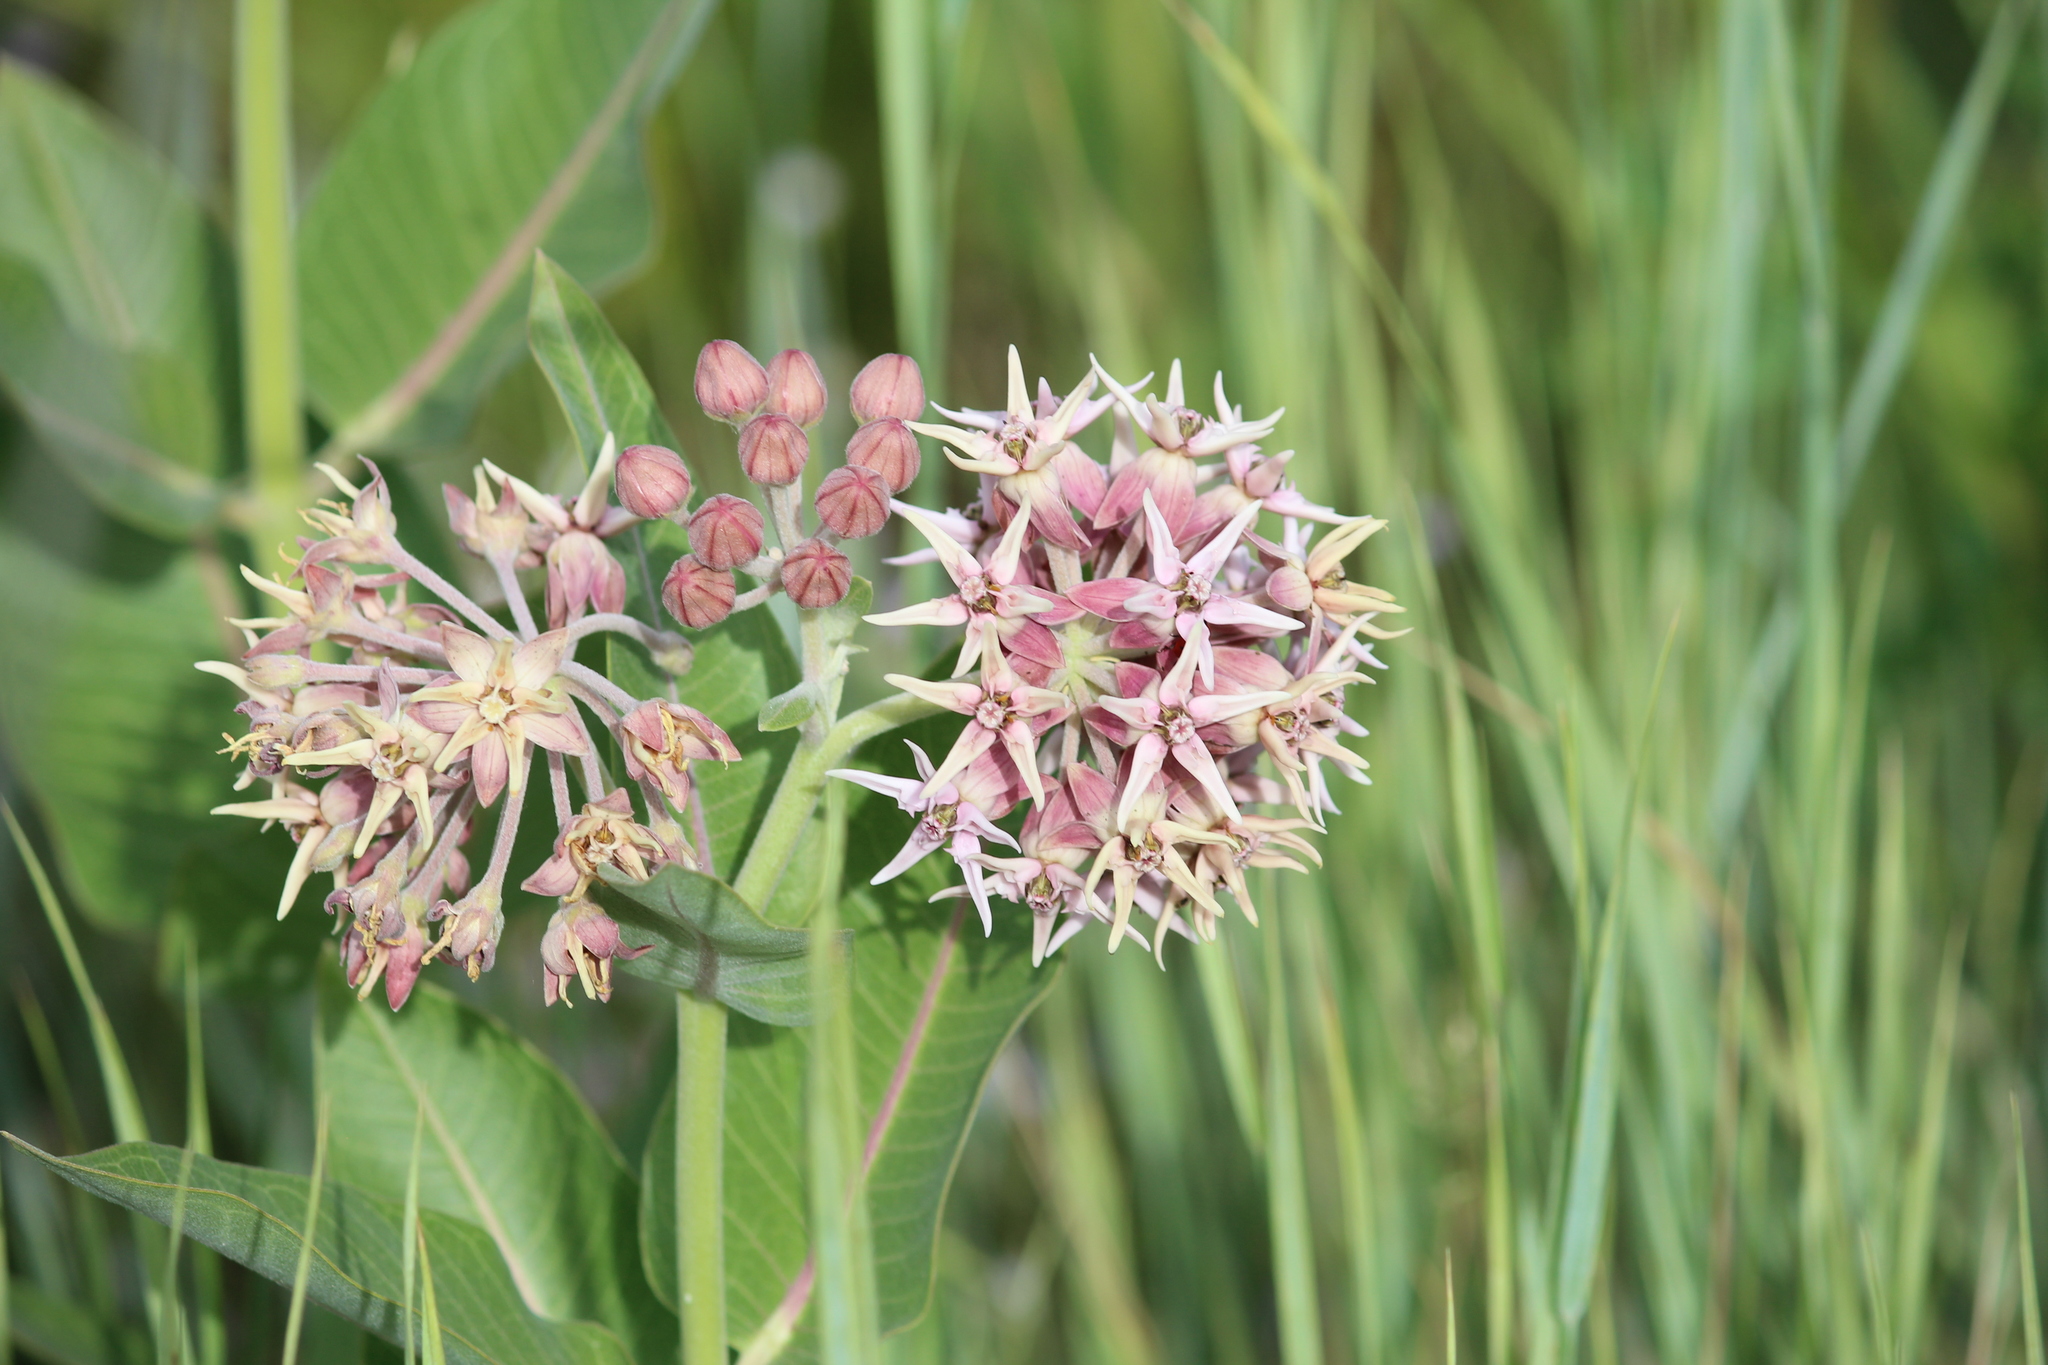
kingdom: Plantae
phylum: Tracheophyta
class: Magnoliopsida
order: Gentianales
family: Apocynaceae
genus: Asclepias
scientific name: Asclepias speciosa
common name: Showy milkweed
